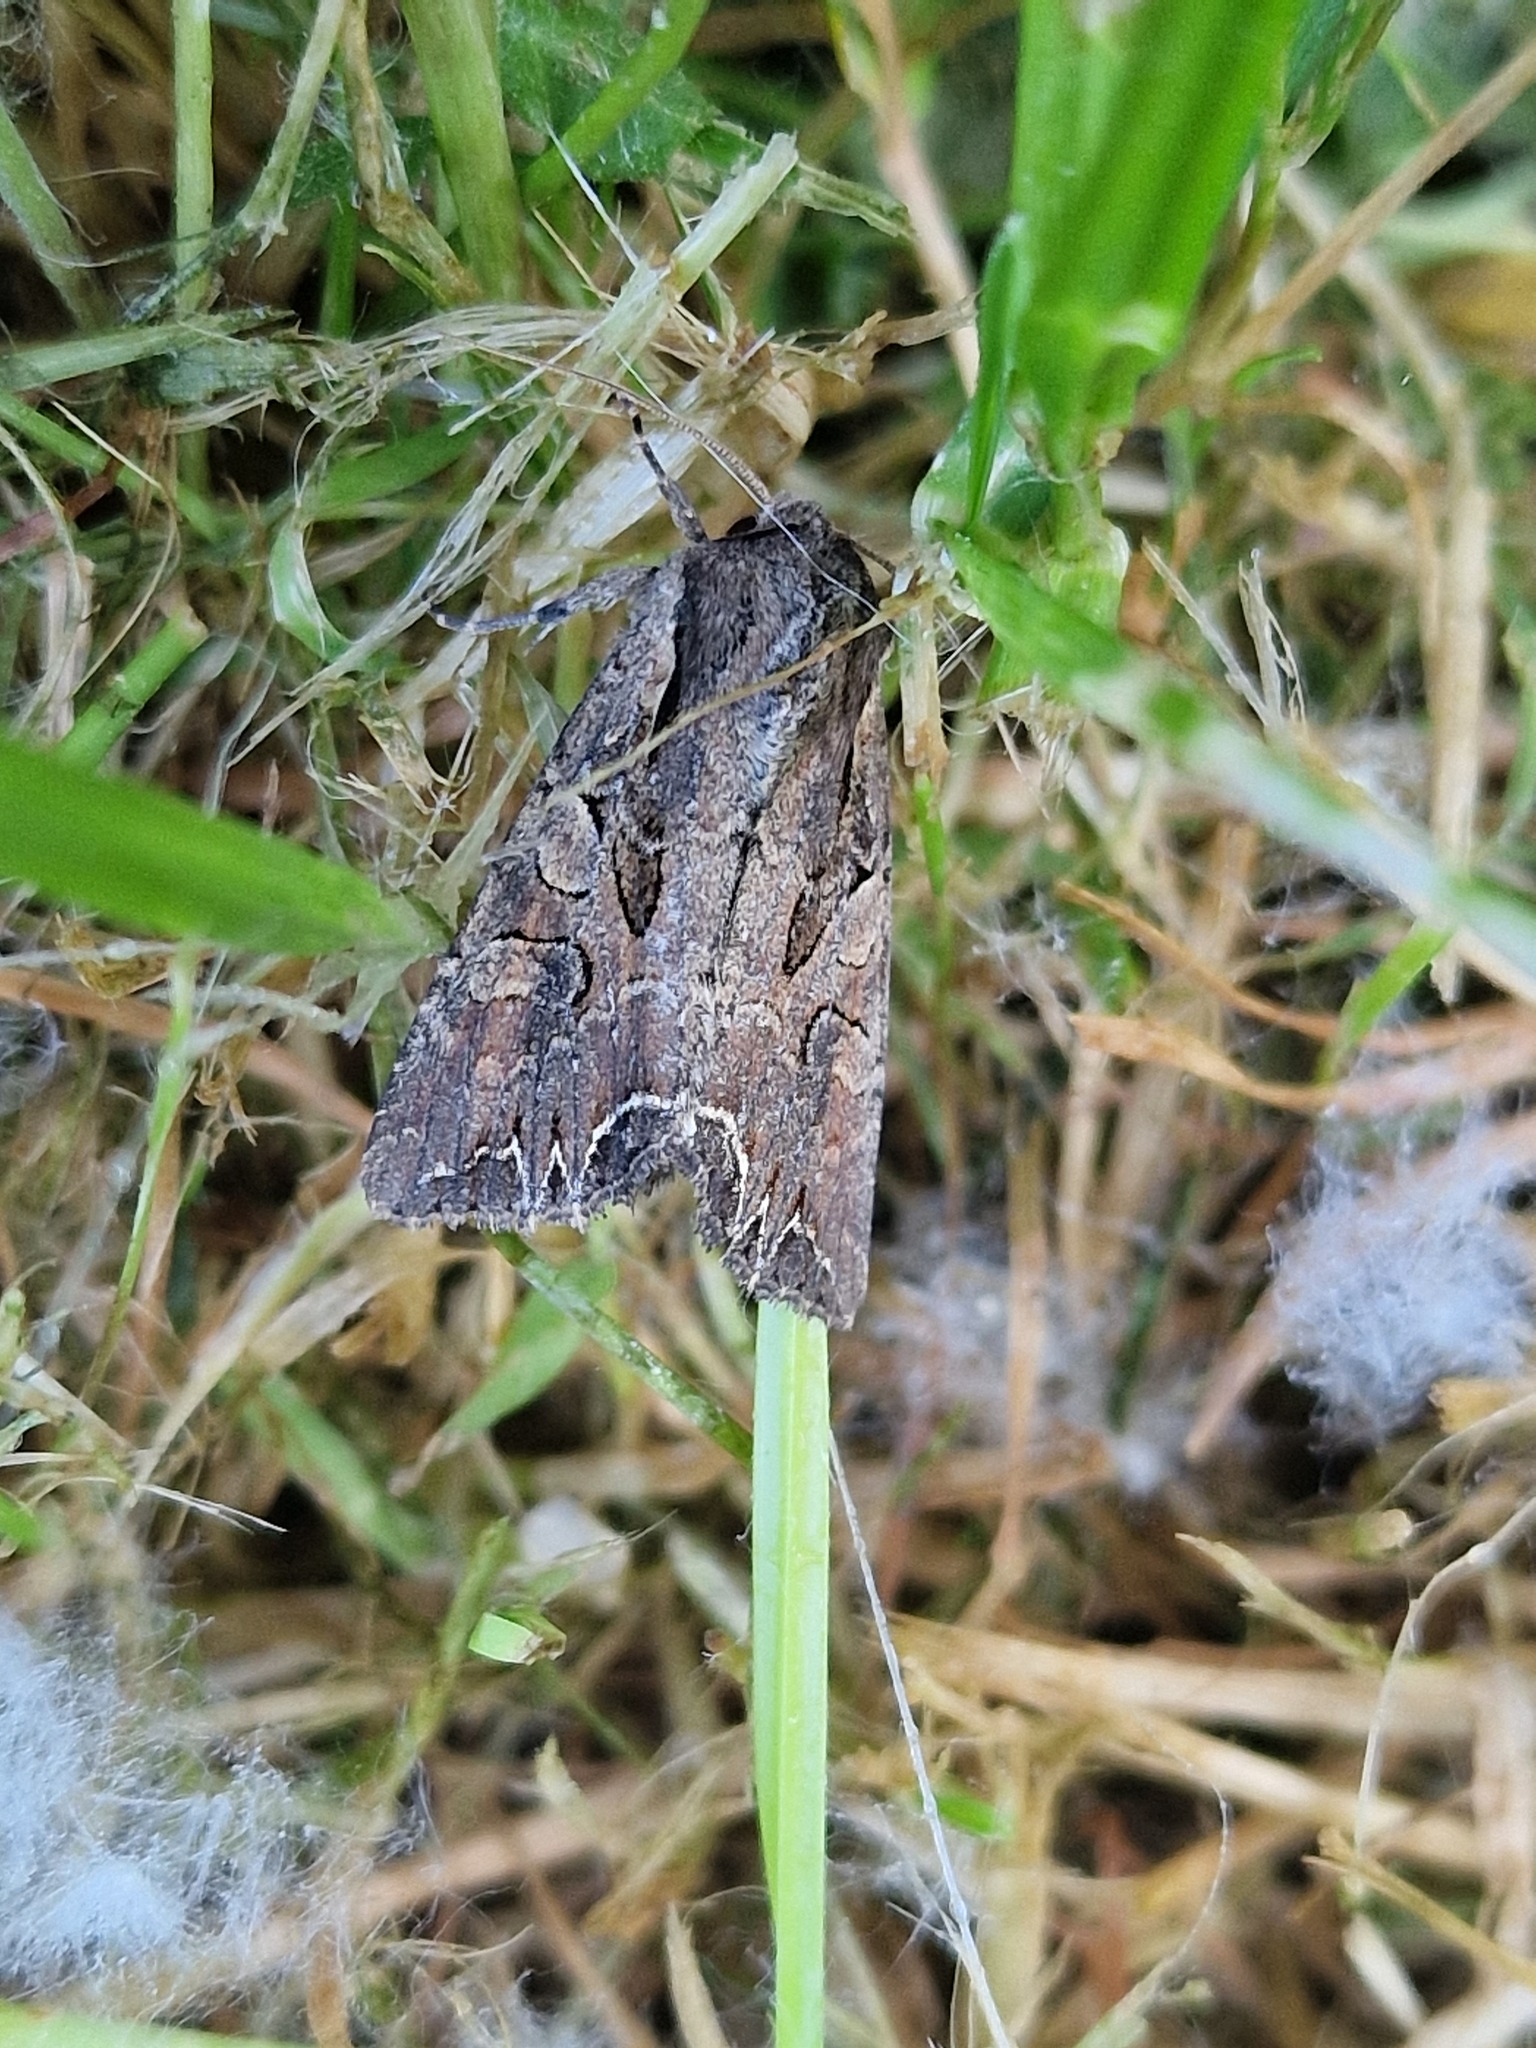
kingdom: Animalia
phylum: Arthropoda
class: Insecta
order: Lepidoptera
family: Noctuidae
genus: Lacanobia
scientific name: Lacanobia suasa
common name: Dog's tooth
